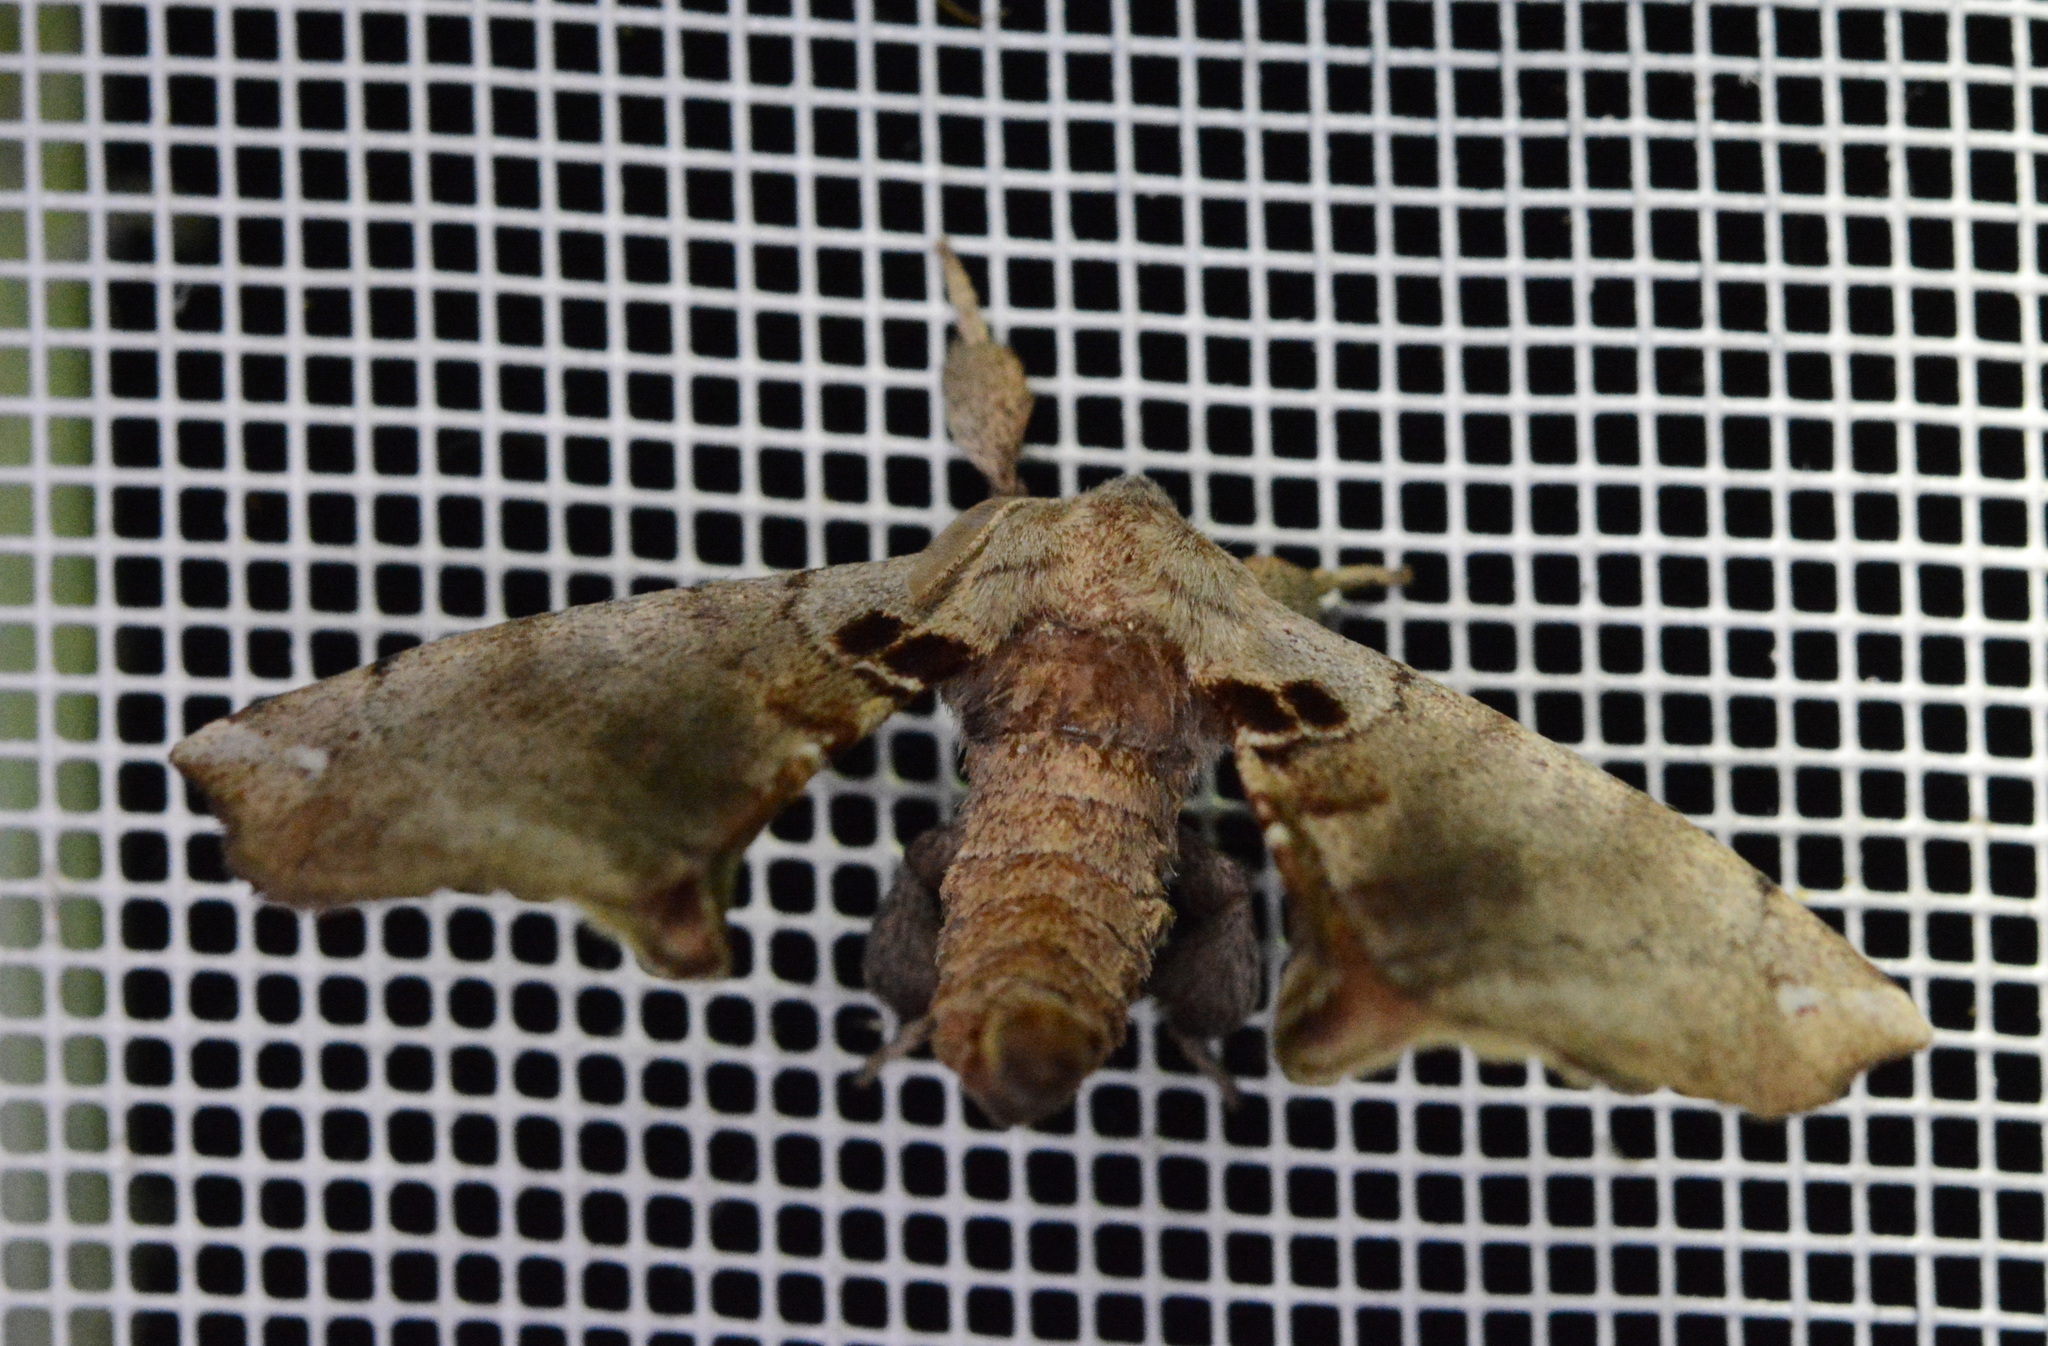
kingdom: Animalia
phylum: Arthropoda
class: Insecta
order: Lepidoptera
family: Apatelodidae
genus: Hygrochroa
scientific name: Hygrochroa Apatelodes torrefacta
